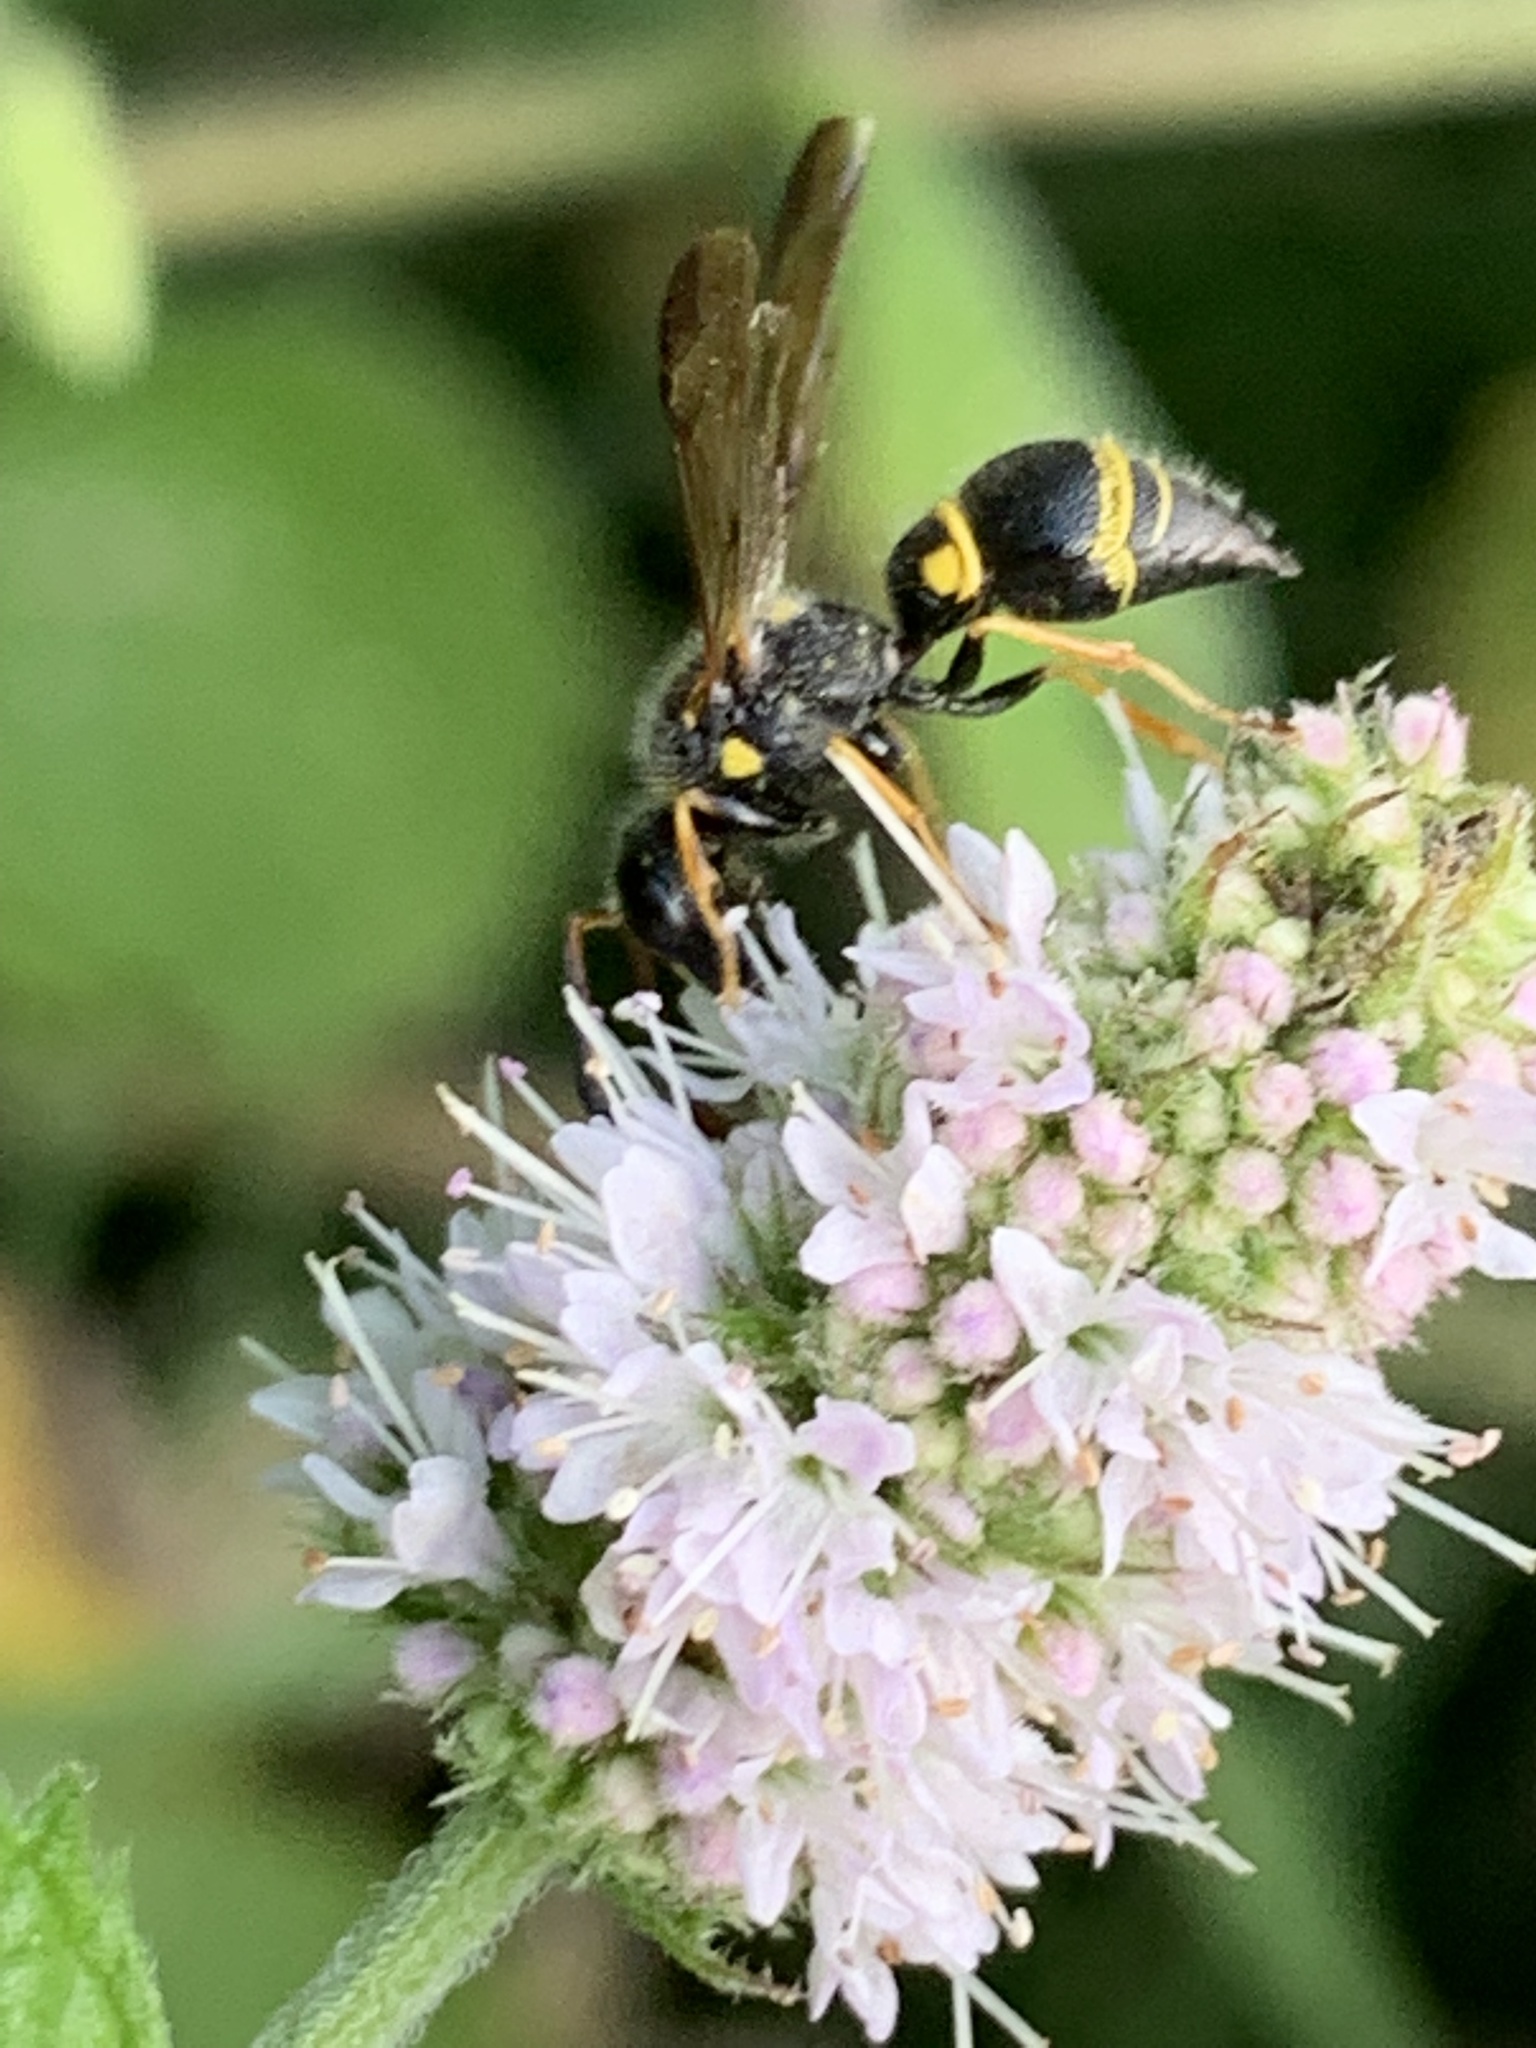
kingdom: Animalia
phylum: Arthropoda
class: Insecta
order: Hymenoptera
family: Vespidae
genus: Ancistrocerus
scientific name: Ancistrocerus campestris
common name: Smiling mason wasp
